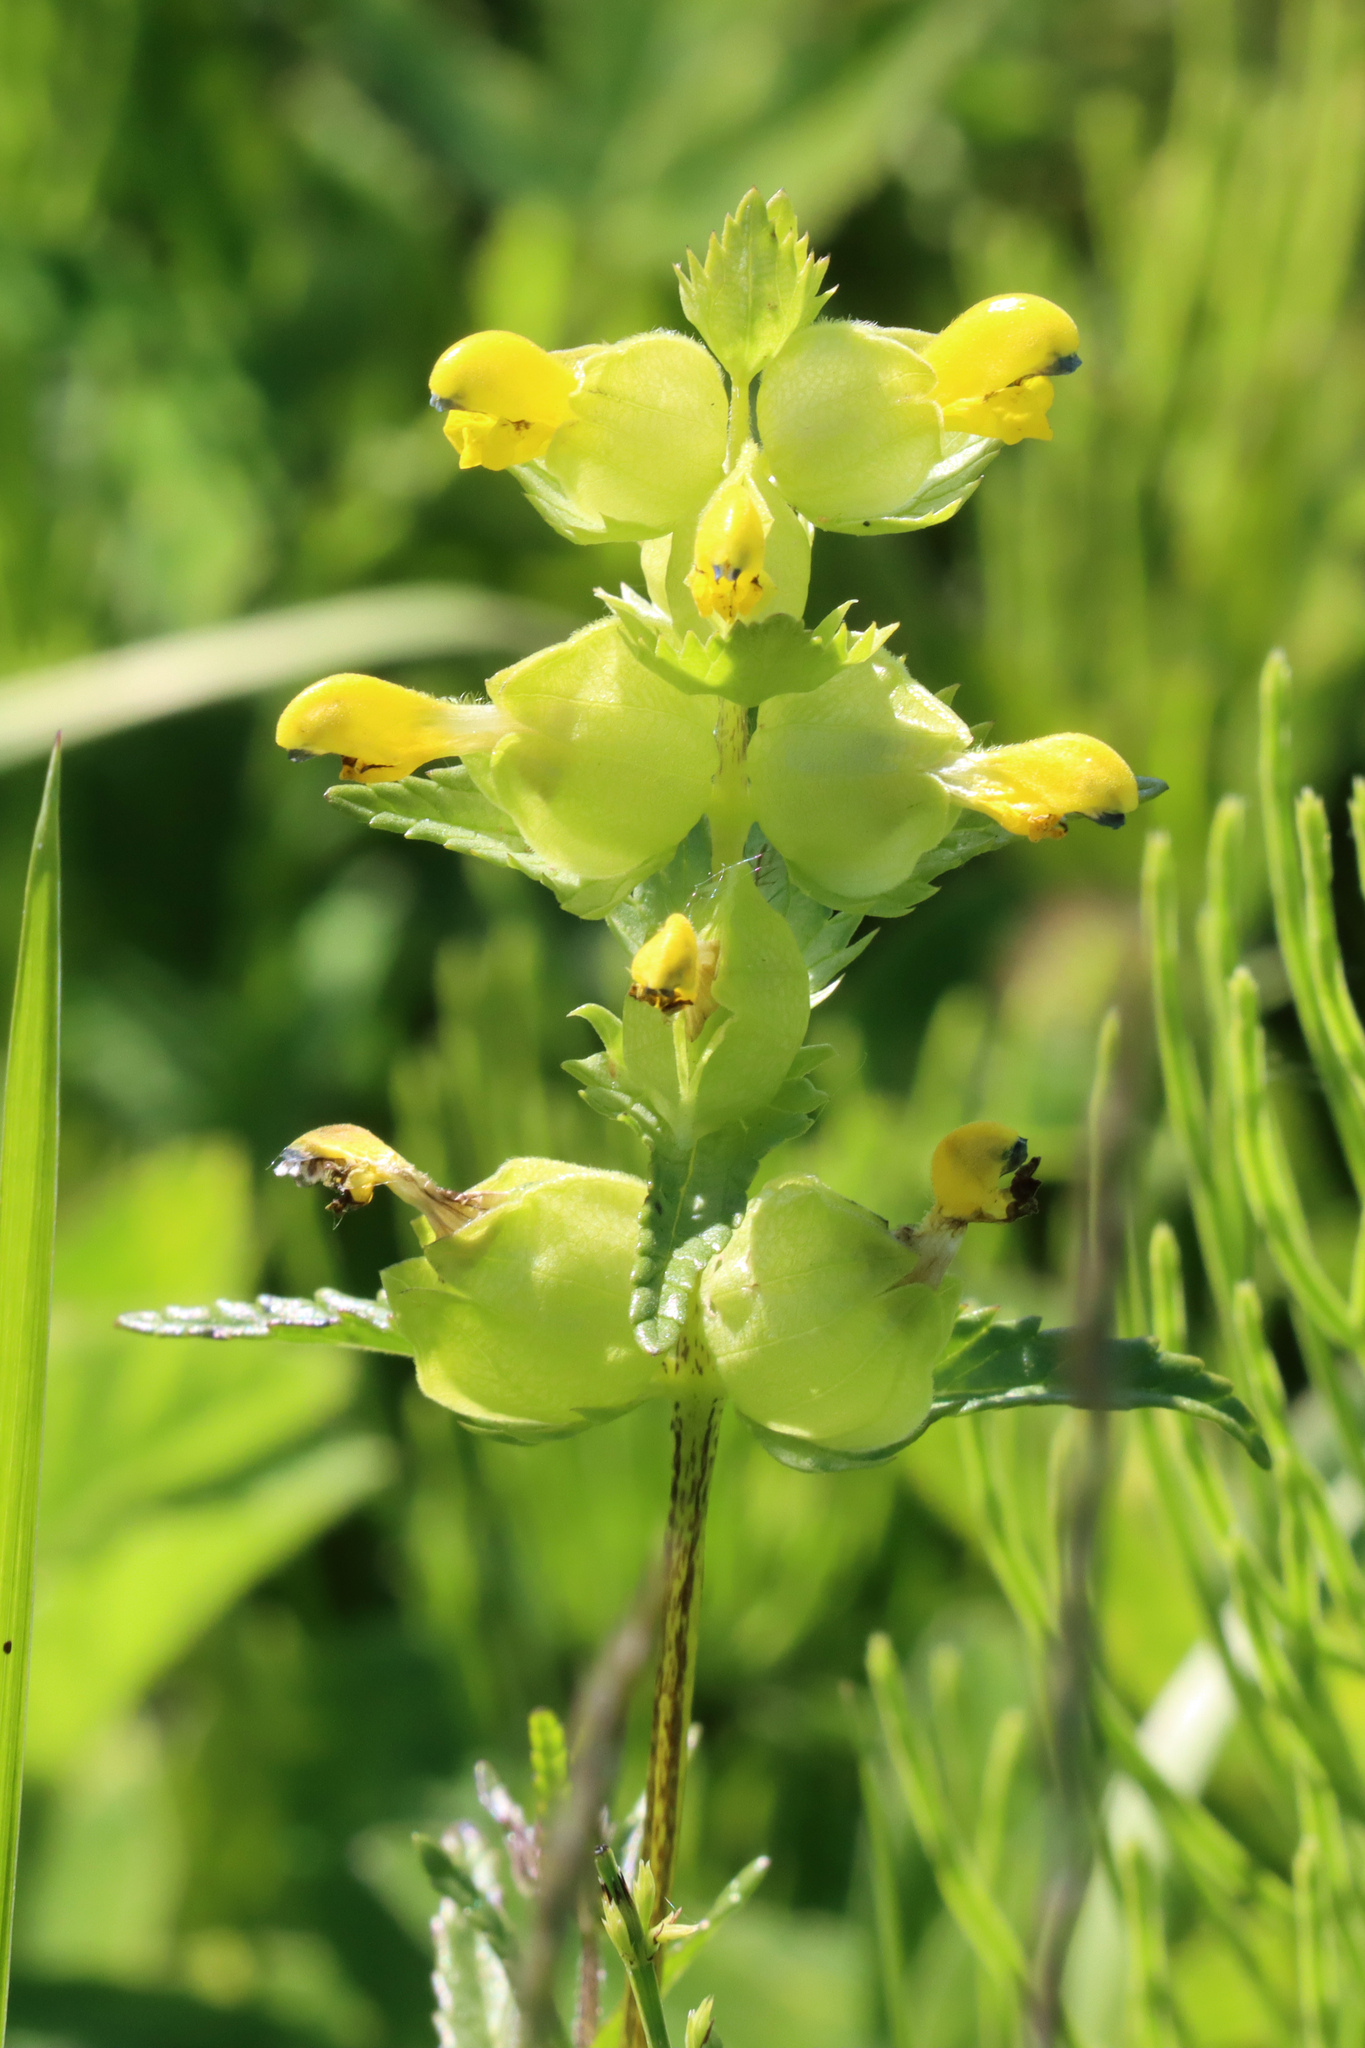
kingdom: Plantae
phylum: Tracheophyta
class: Magnoliopsida
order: Lamiales
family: Orobanchaceae
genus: Rhinanthus
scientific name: Rhinanthus minor
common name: Yellow-rattle
